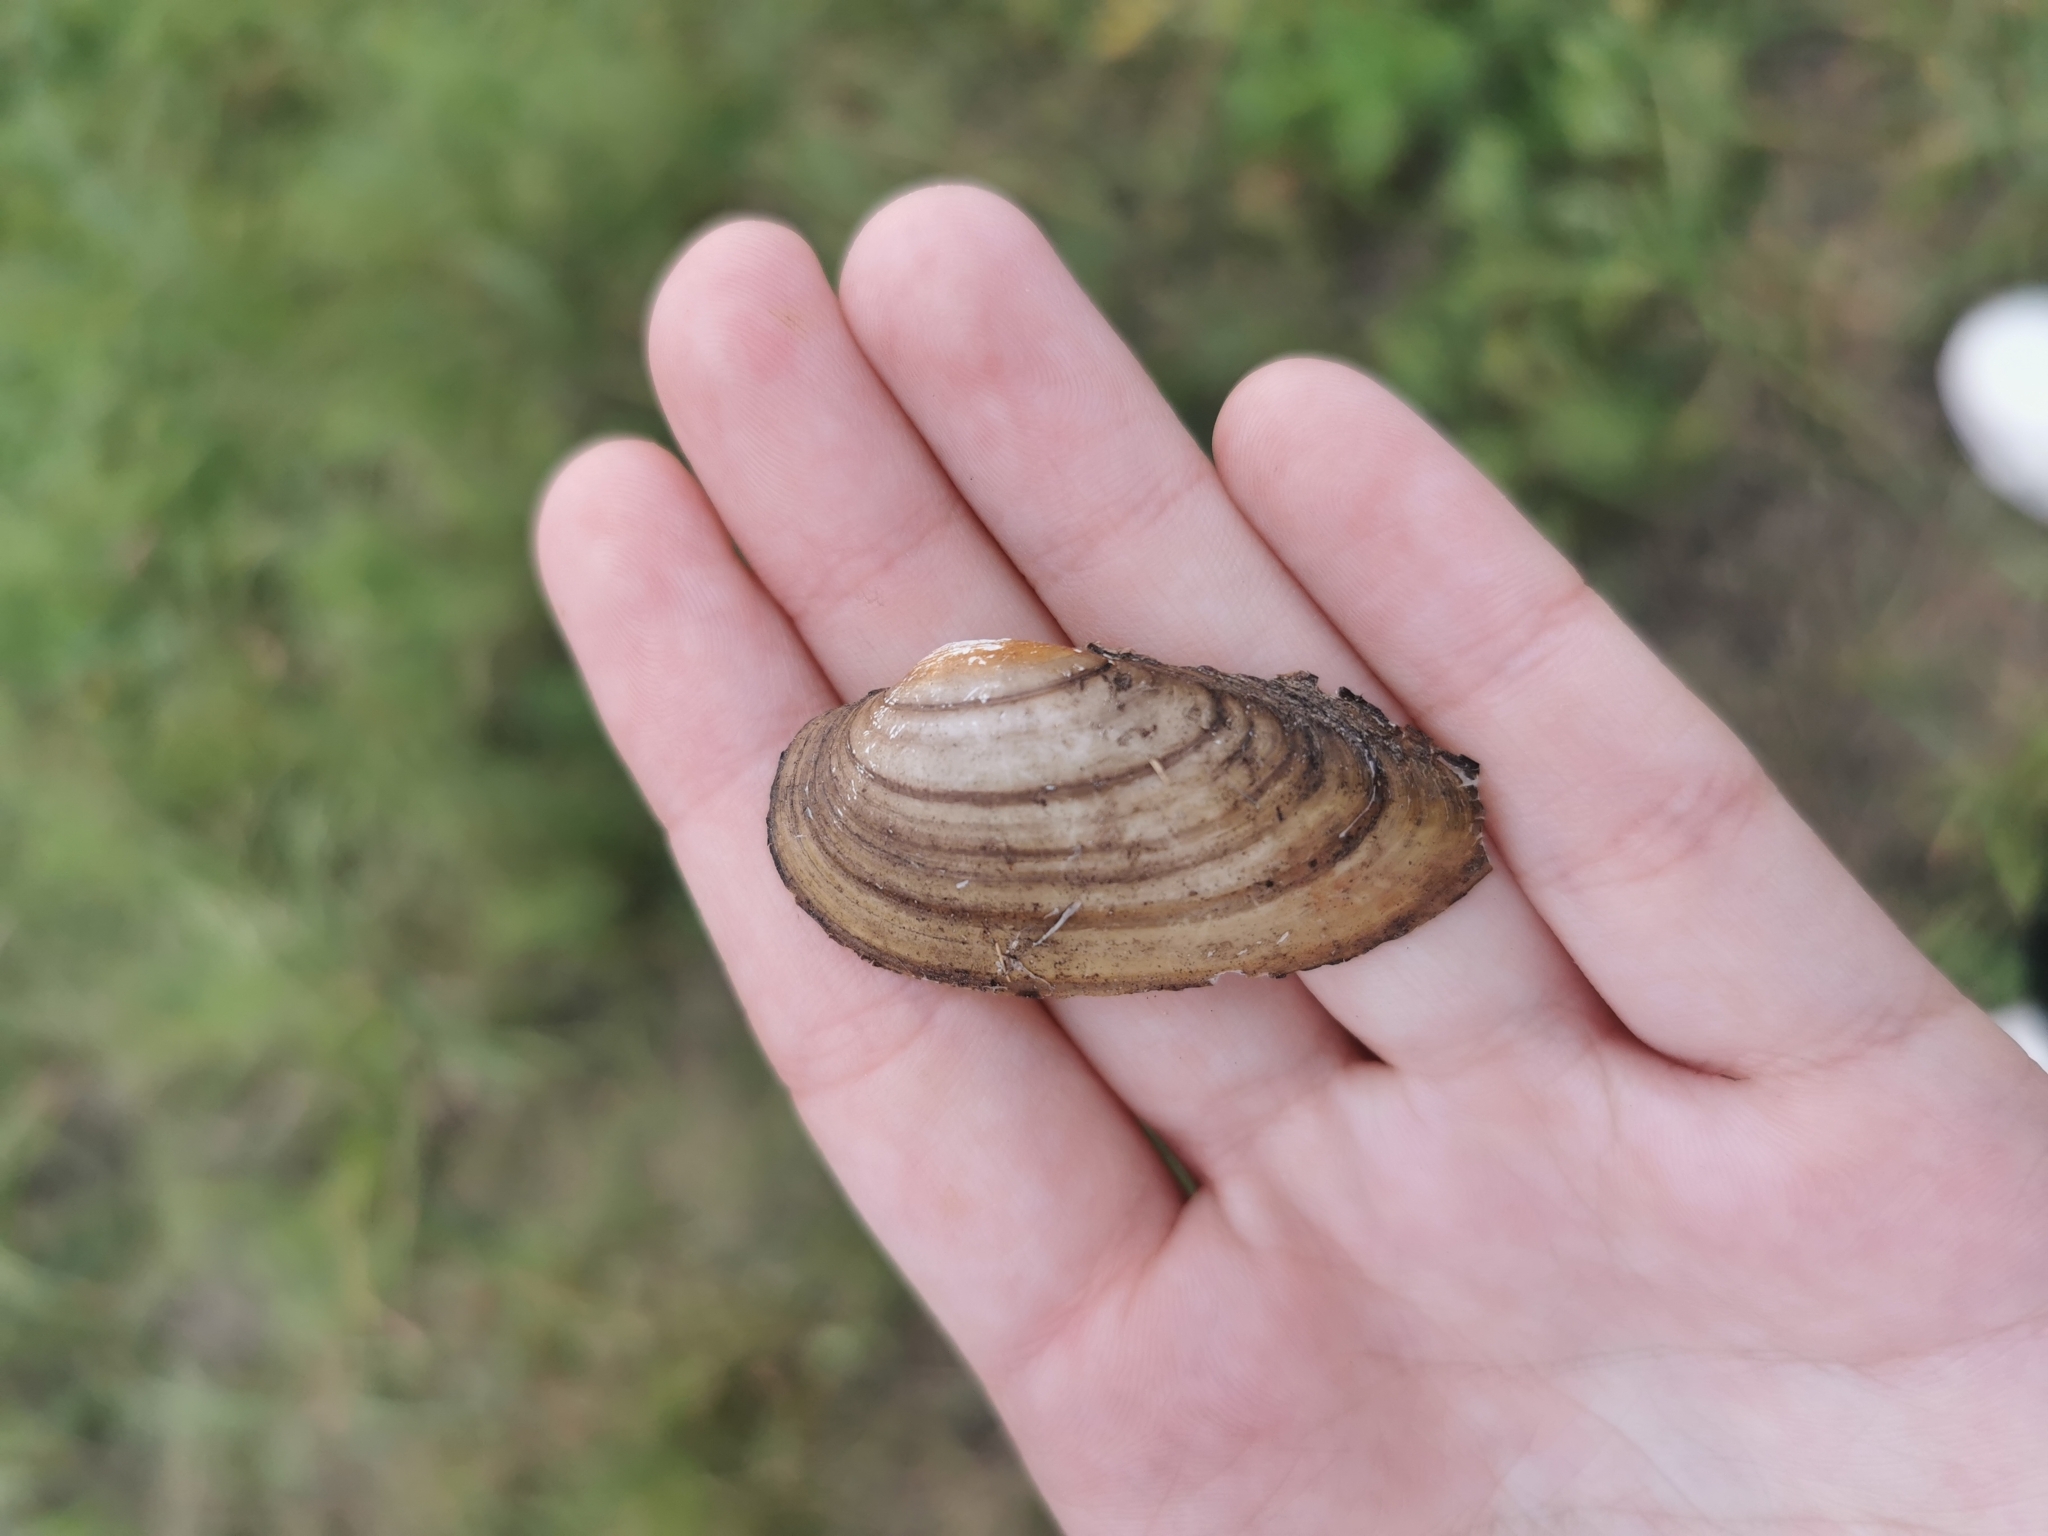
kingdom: Animalia
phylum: Mollusca
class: Bivalvia
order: Unionida
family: Unionidae
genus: Unio
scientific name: Unio pictorum
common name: Painter's mussel
